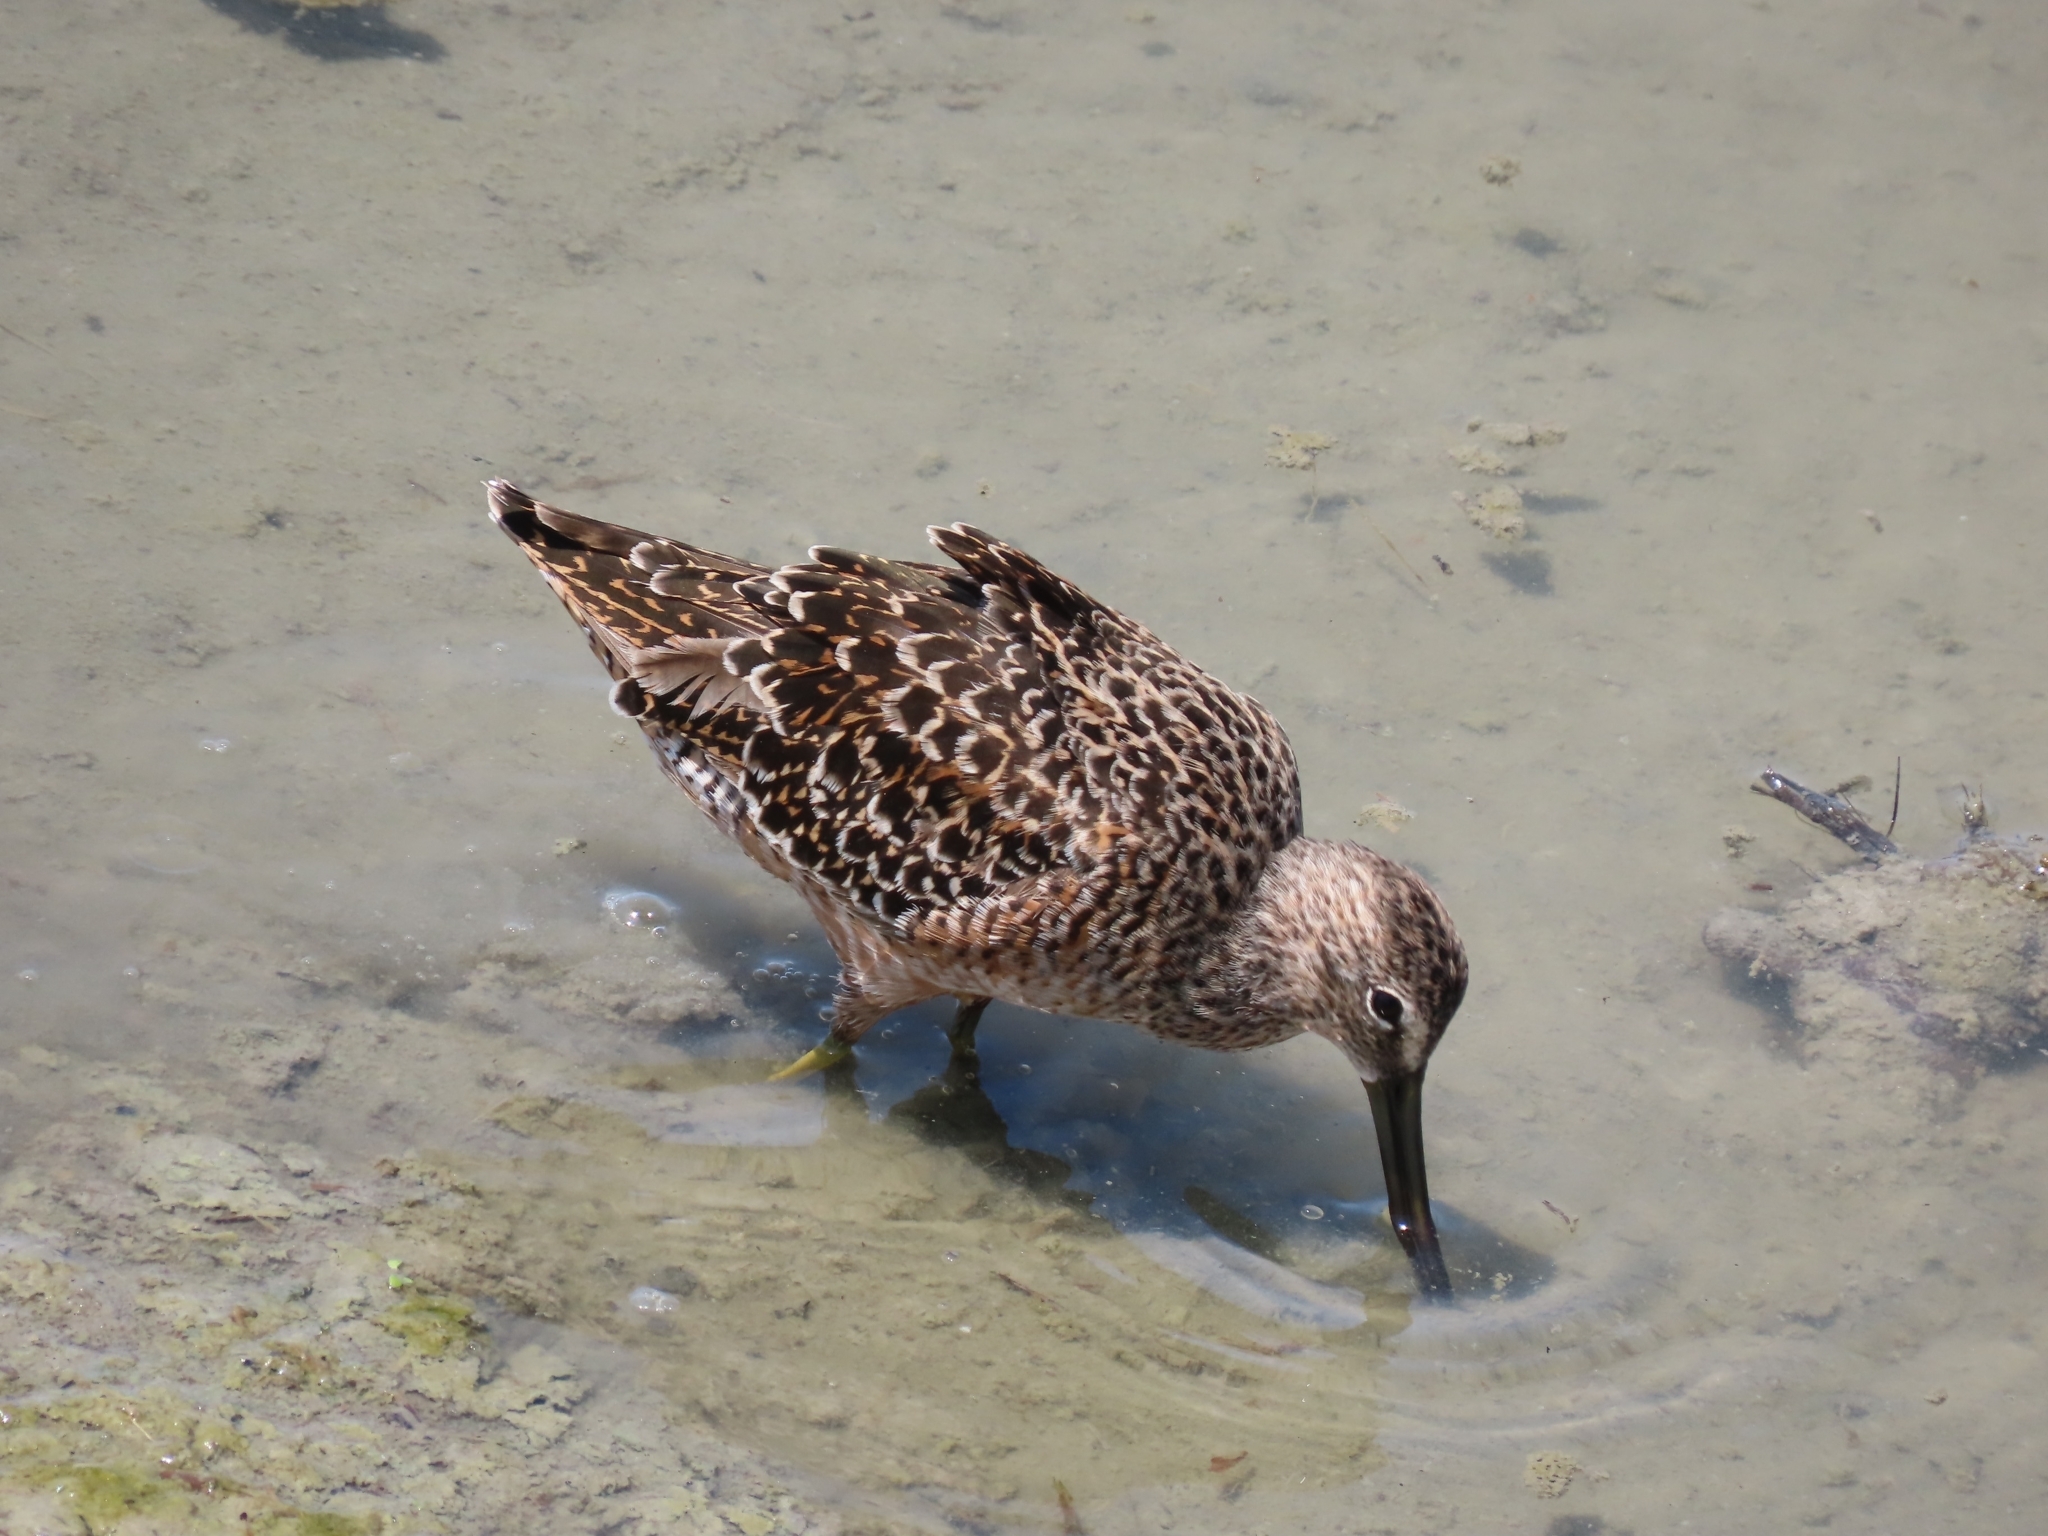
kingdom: Animalia
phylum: Chordata
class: Aves
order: Charadriiformes
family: Scolopacidae
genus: Limnodromus
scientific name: Limnodromus scolopaceus
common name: Long-billed dowitcher
